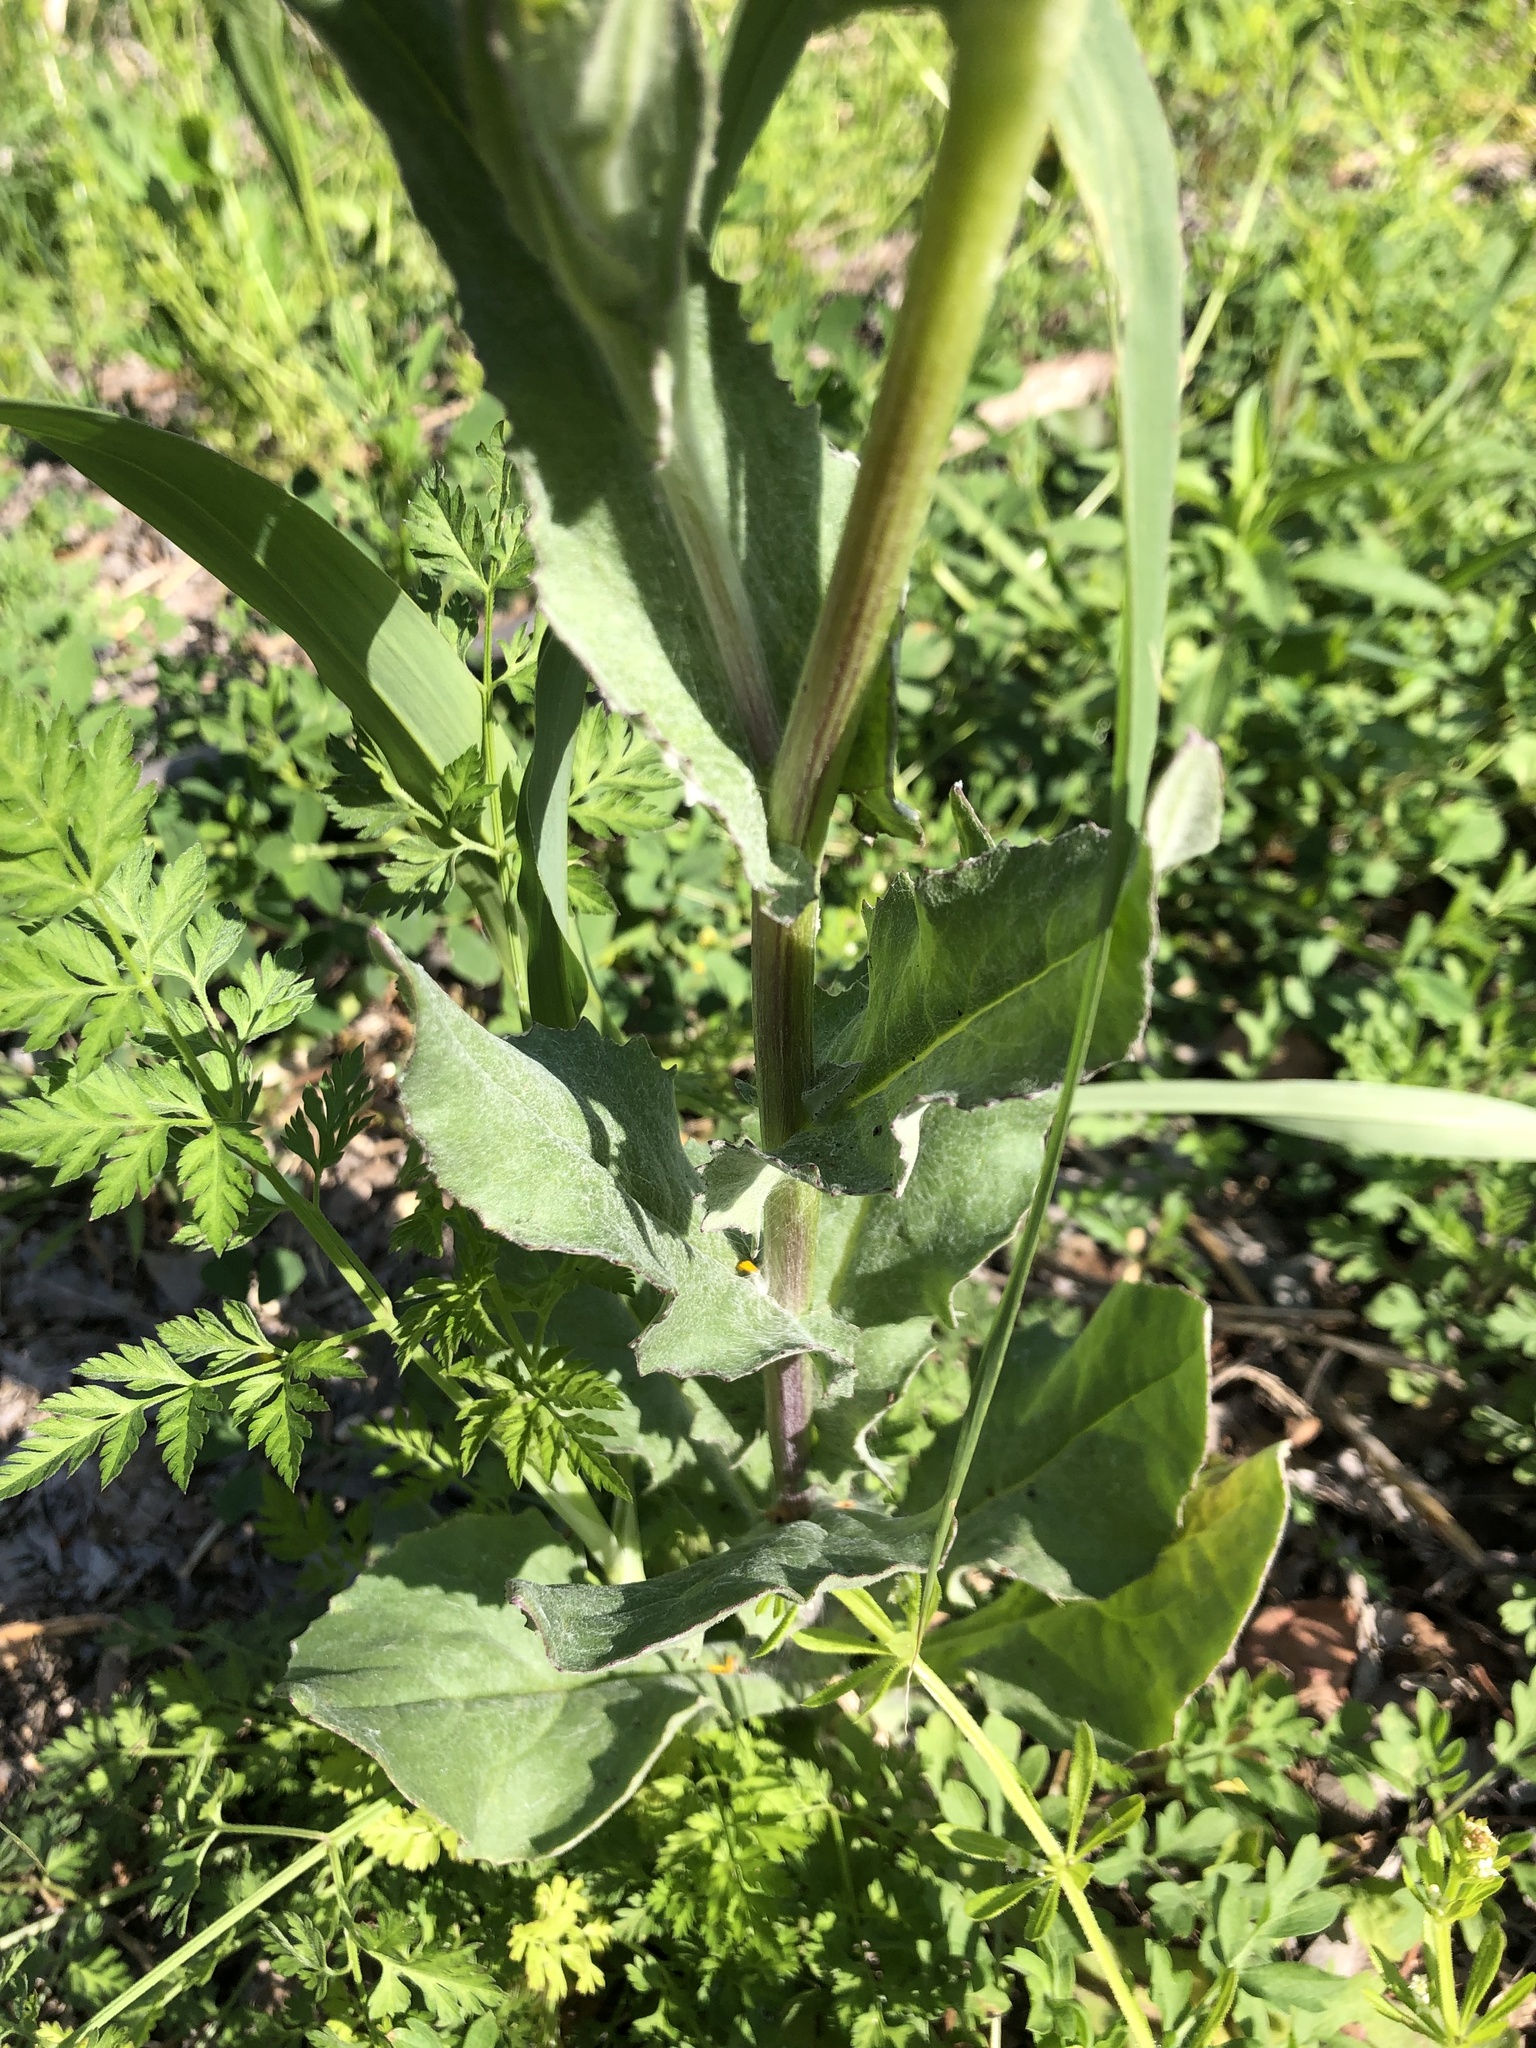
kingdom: Plantae
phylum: Tracheophyta
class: Magnoliopsida
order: Asterales
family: Asteraceae
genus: Senecio
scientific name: Senecio ampullaceus
